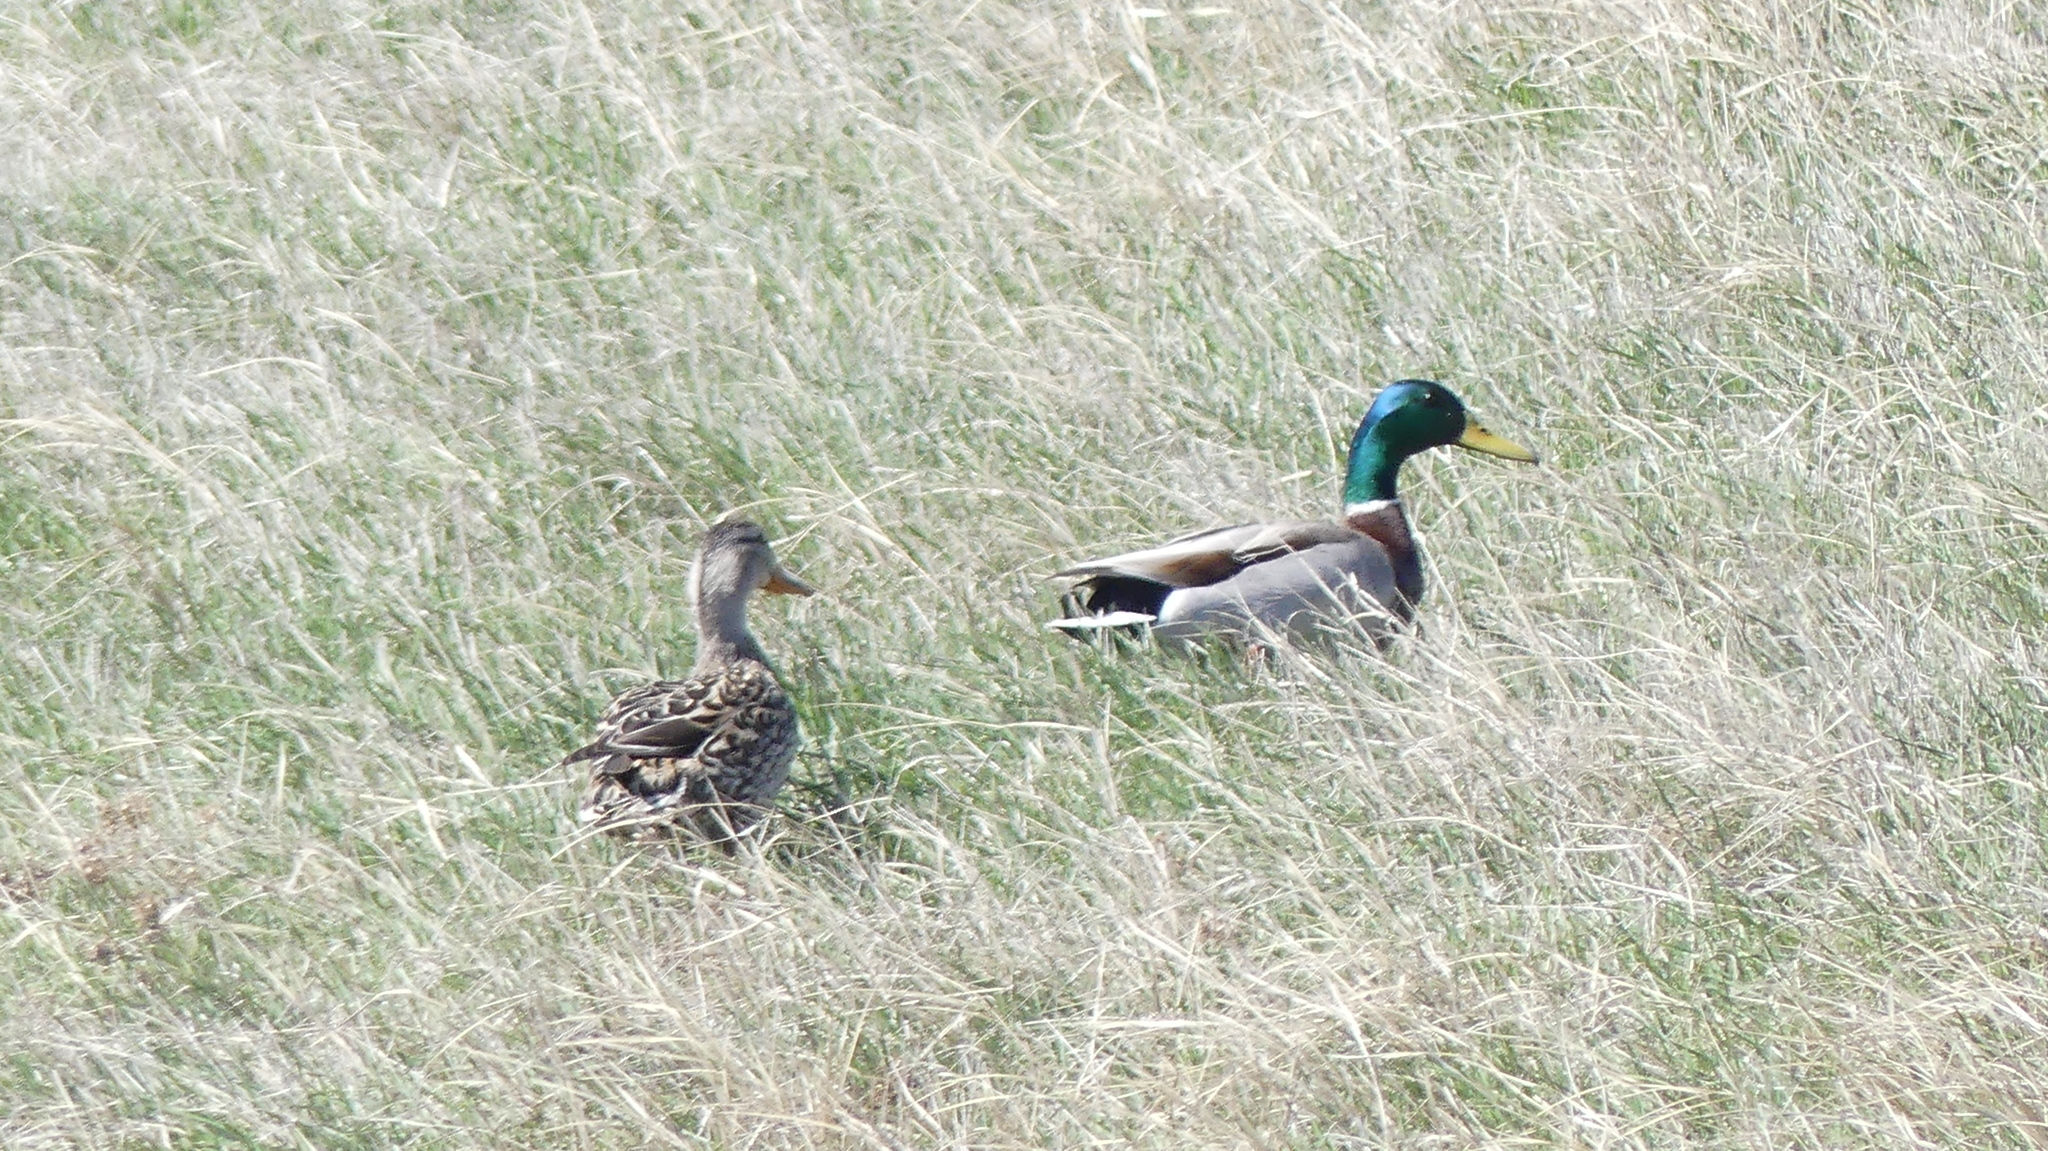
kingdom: Animalia
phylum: Chordata
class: Aves
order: Anseriformes
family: Anatidae
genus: Anas
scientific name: Anas platyrhynchos
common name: Mallard
